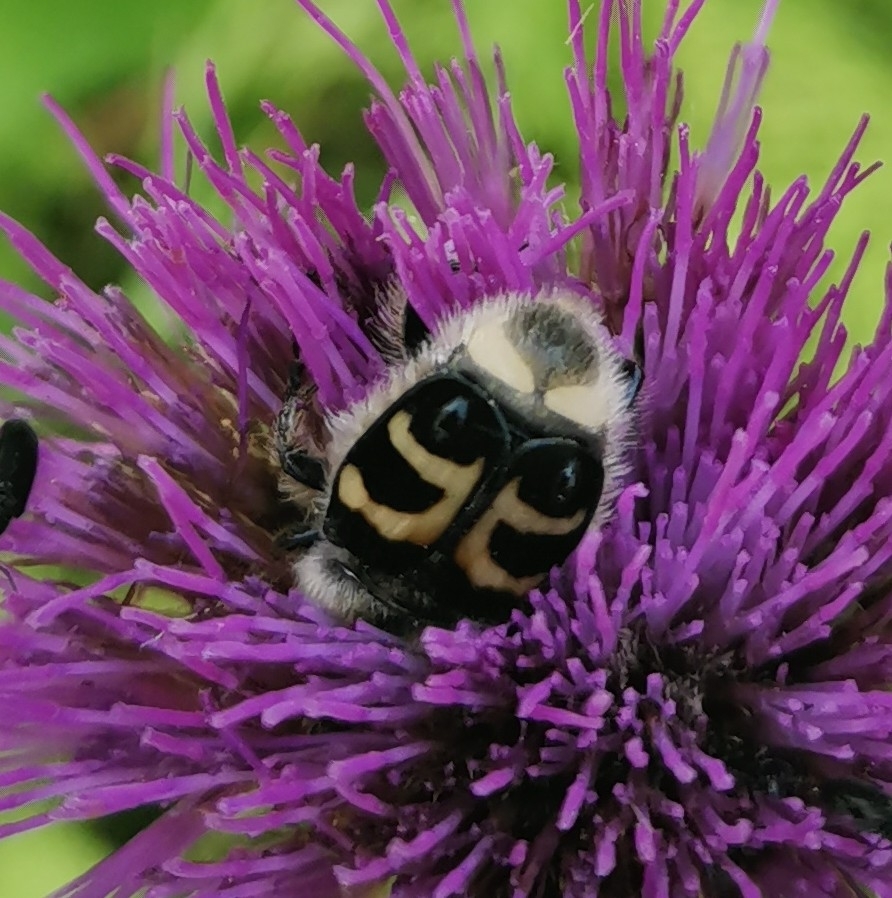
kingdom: Animalia
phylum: Arthropoda
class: Insecta
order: Coleoptera
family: Scarabaeidae
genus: Trichius
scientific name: Trichius fasciatus
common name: Bee beetle
